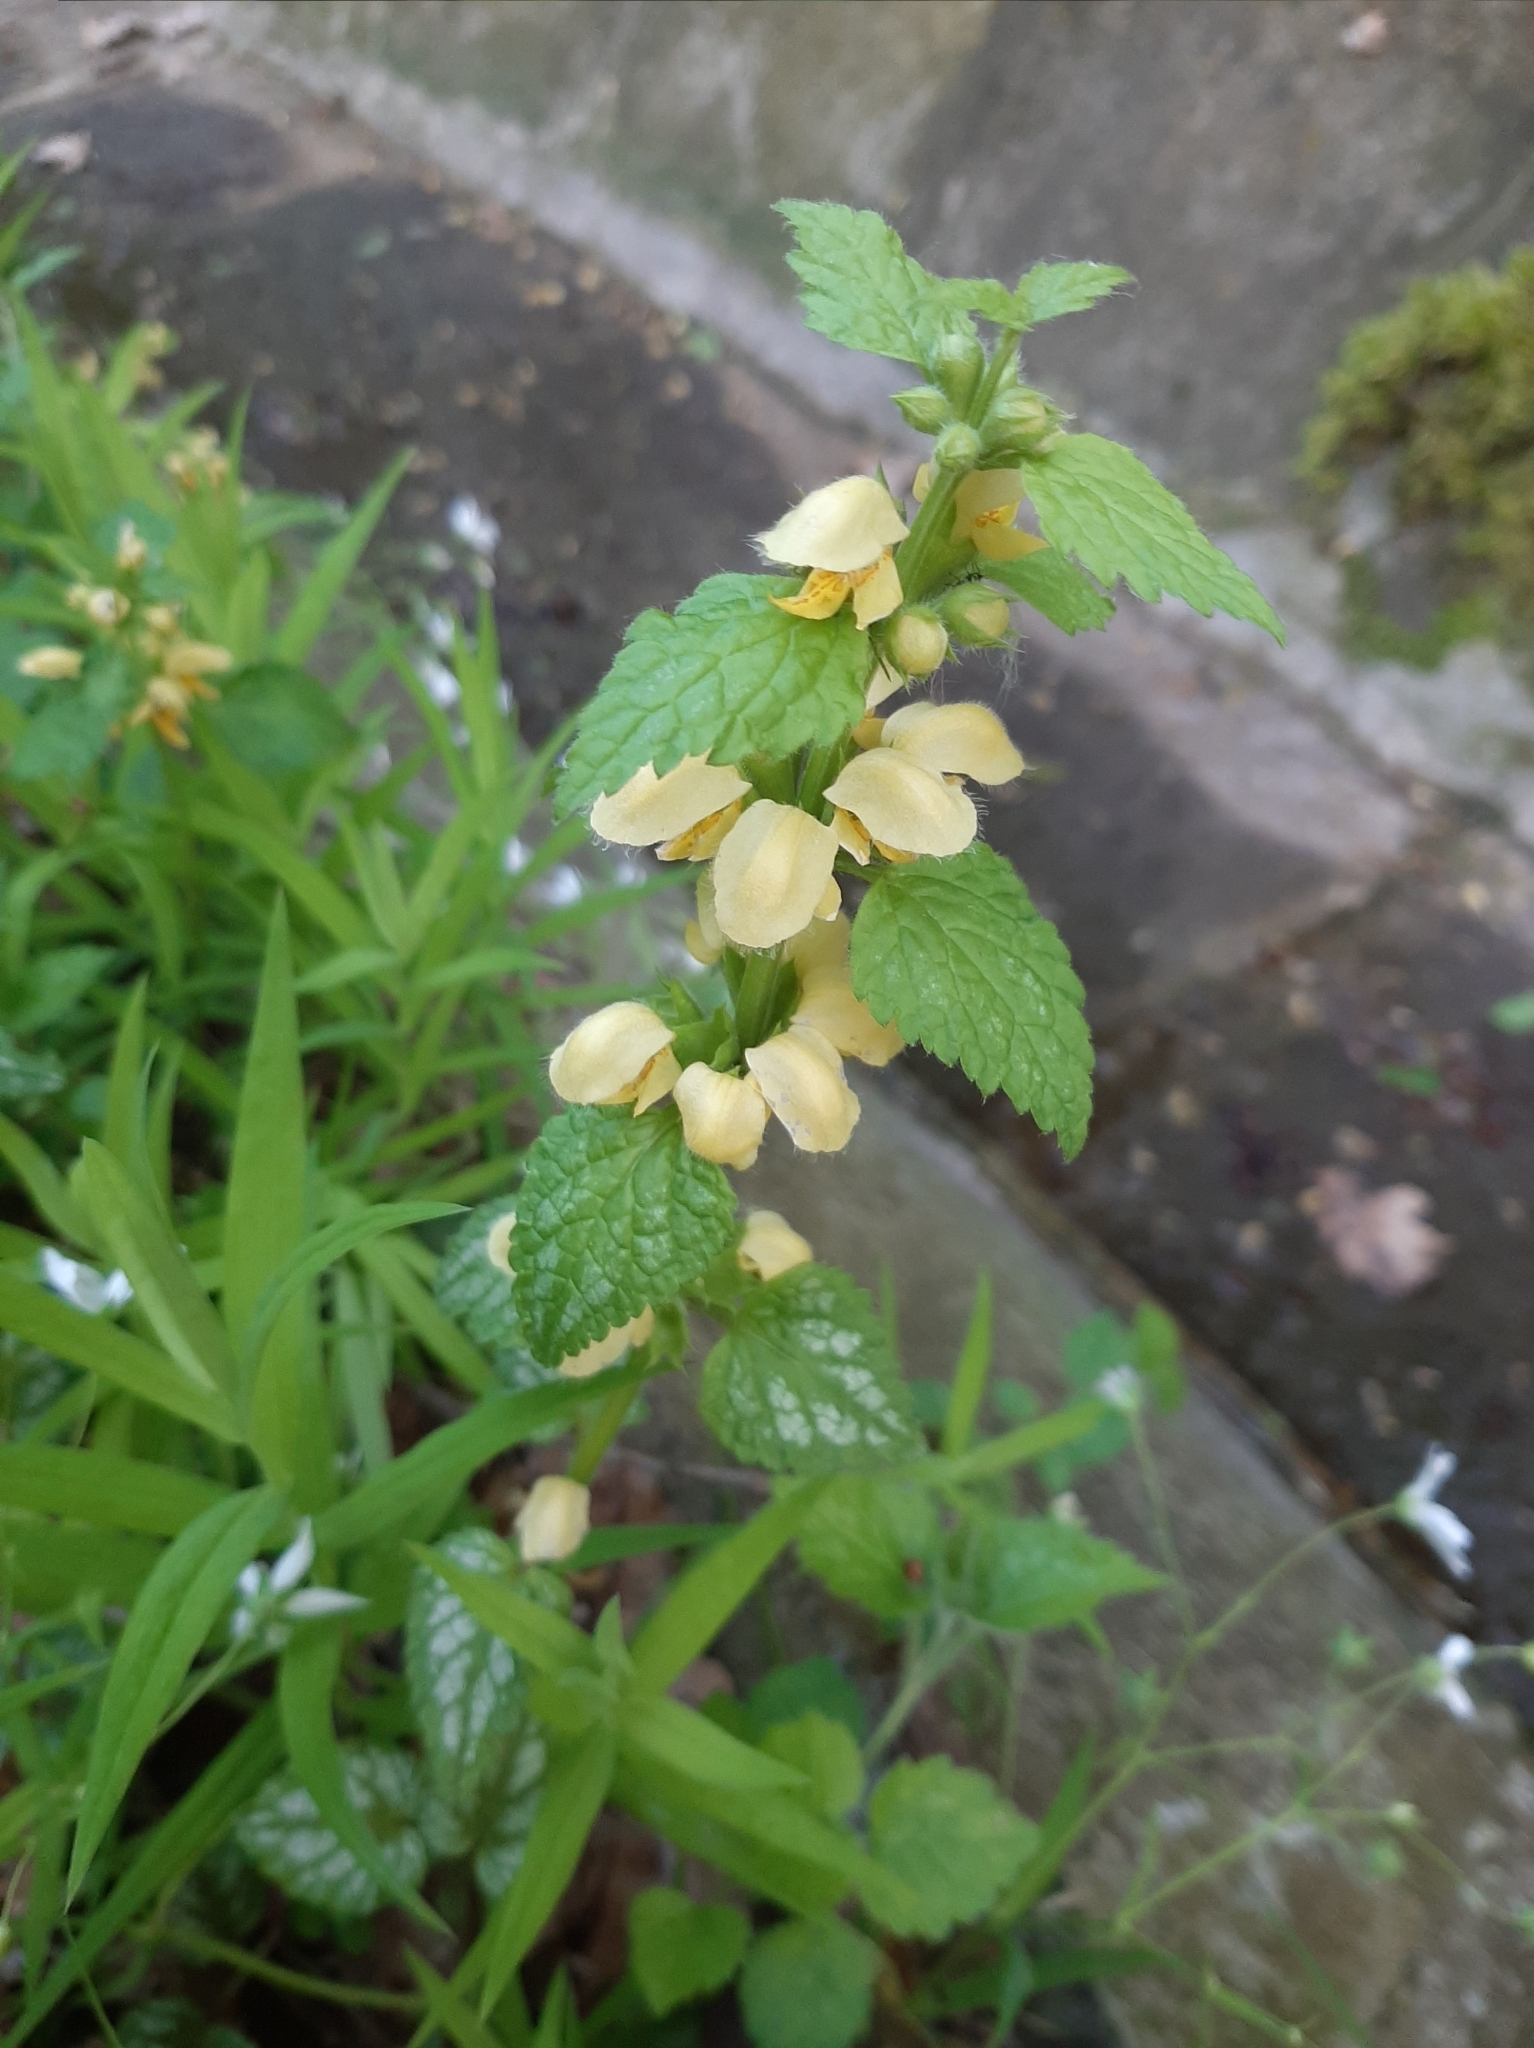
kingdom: Plantae
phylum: Tracheophyta
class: Magnoliopsida
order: Lamiales
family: Lamiaceae
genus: Lamium
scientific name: Lamium galeobdolon
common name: Yellow archangel
